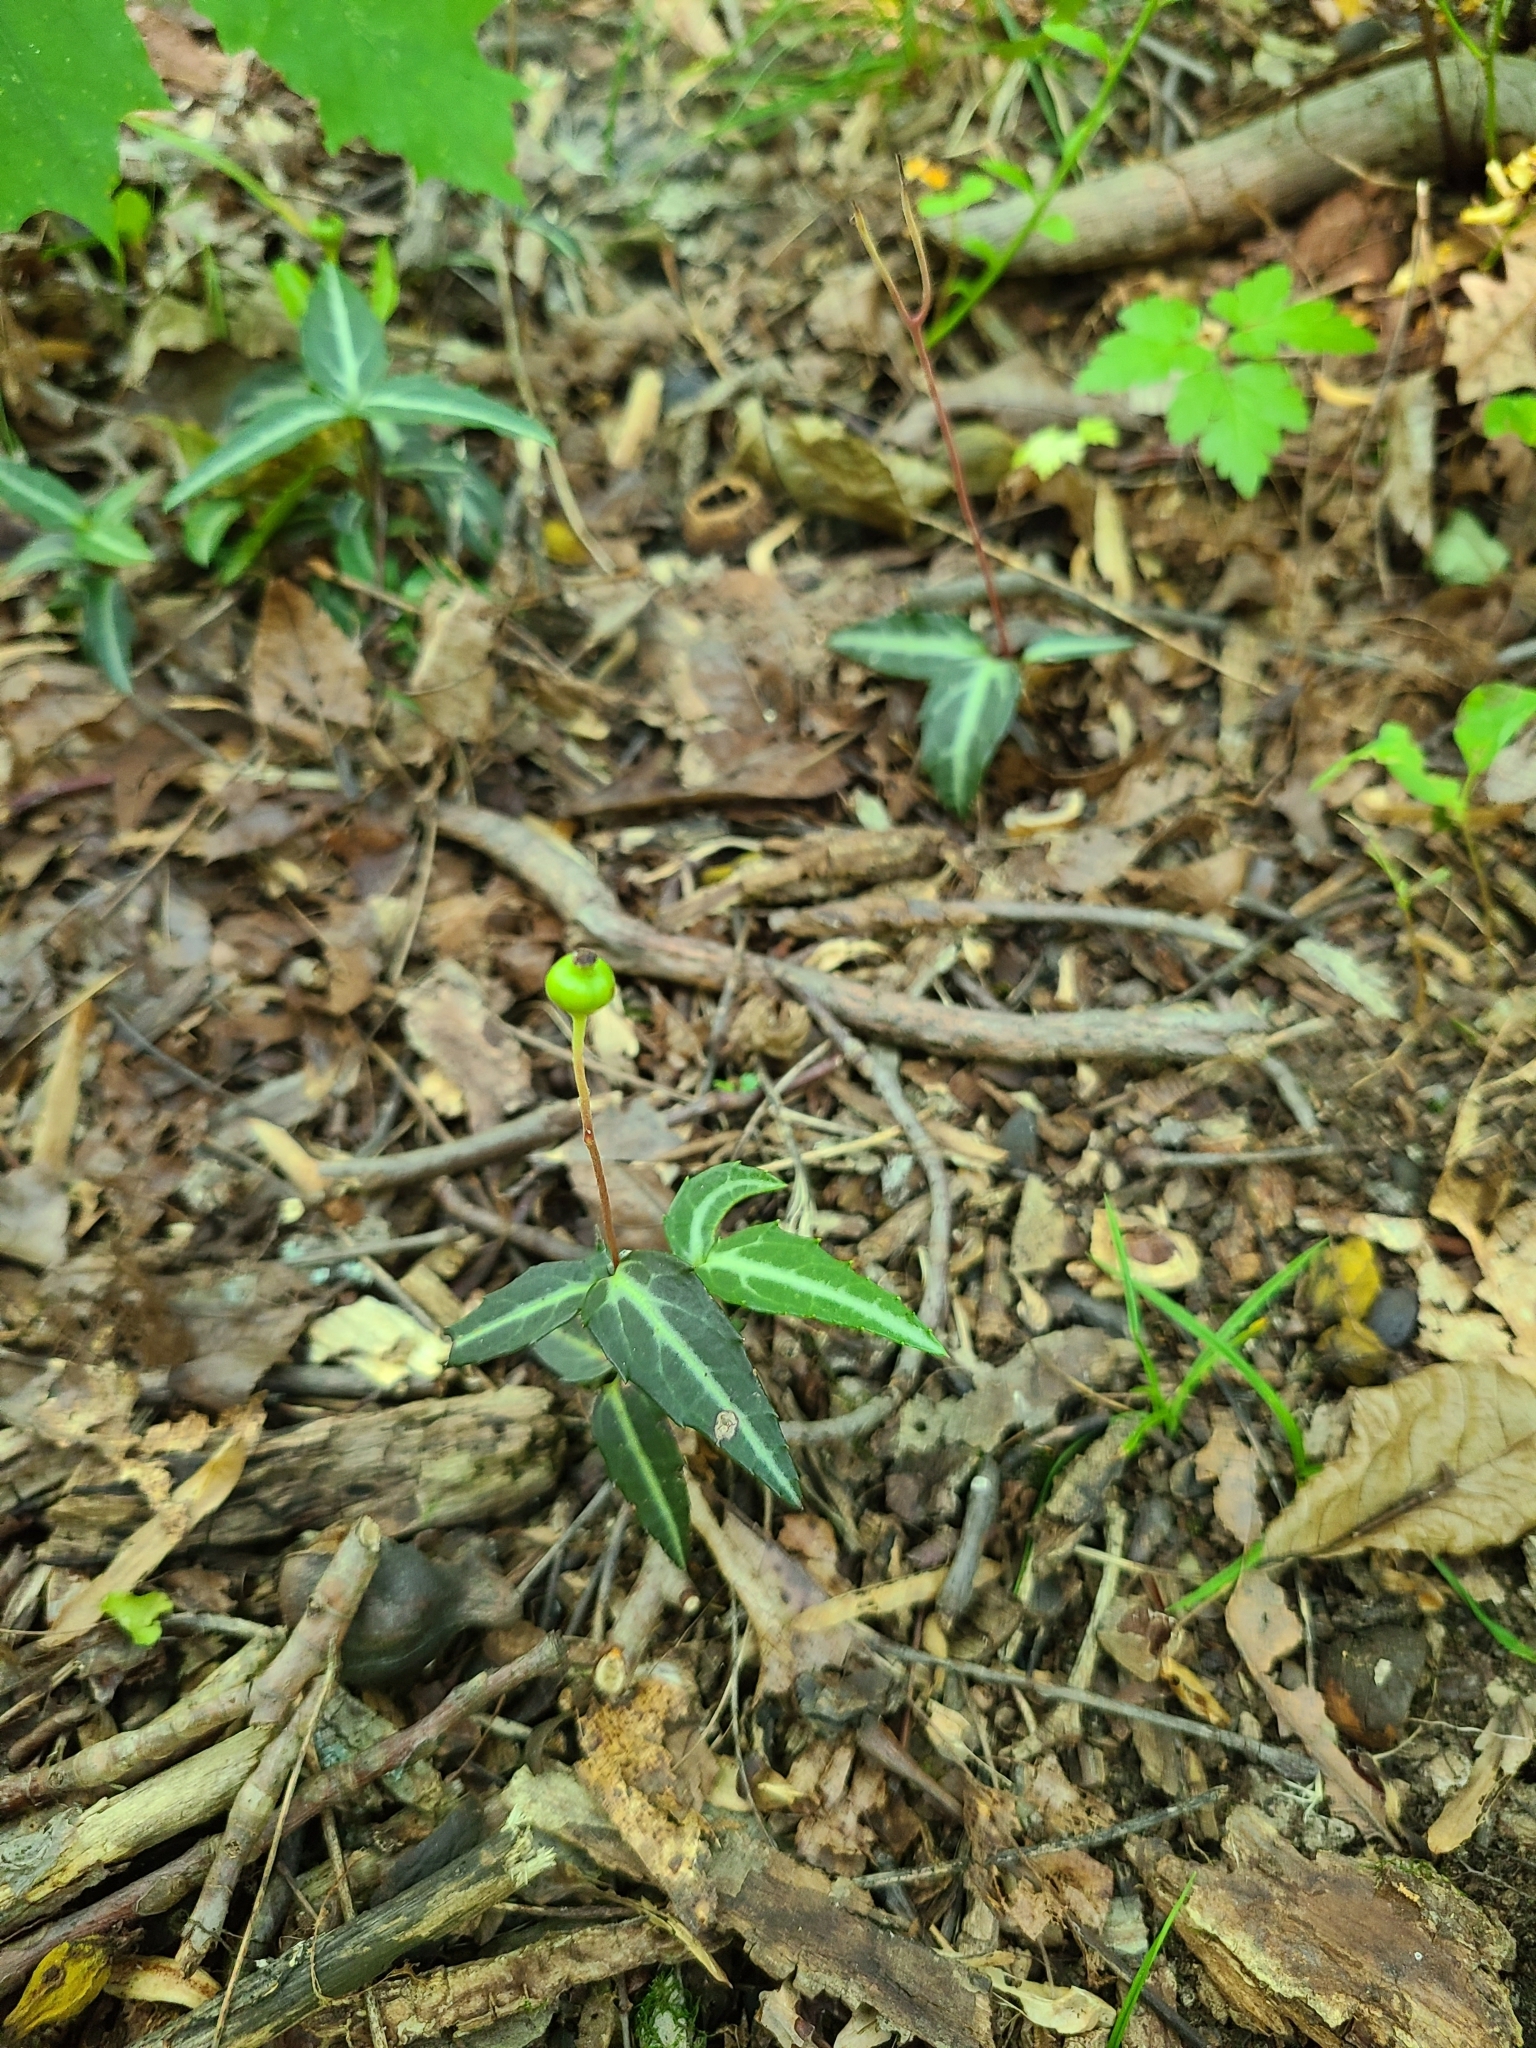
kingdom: Plantae
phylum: Tracheophyta
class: Magnoliopsida
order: Ericales
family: Ericaceae
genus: Chimaphila
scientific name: Chimaphila maculata
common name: Spotted pipsissewa
